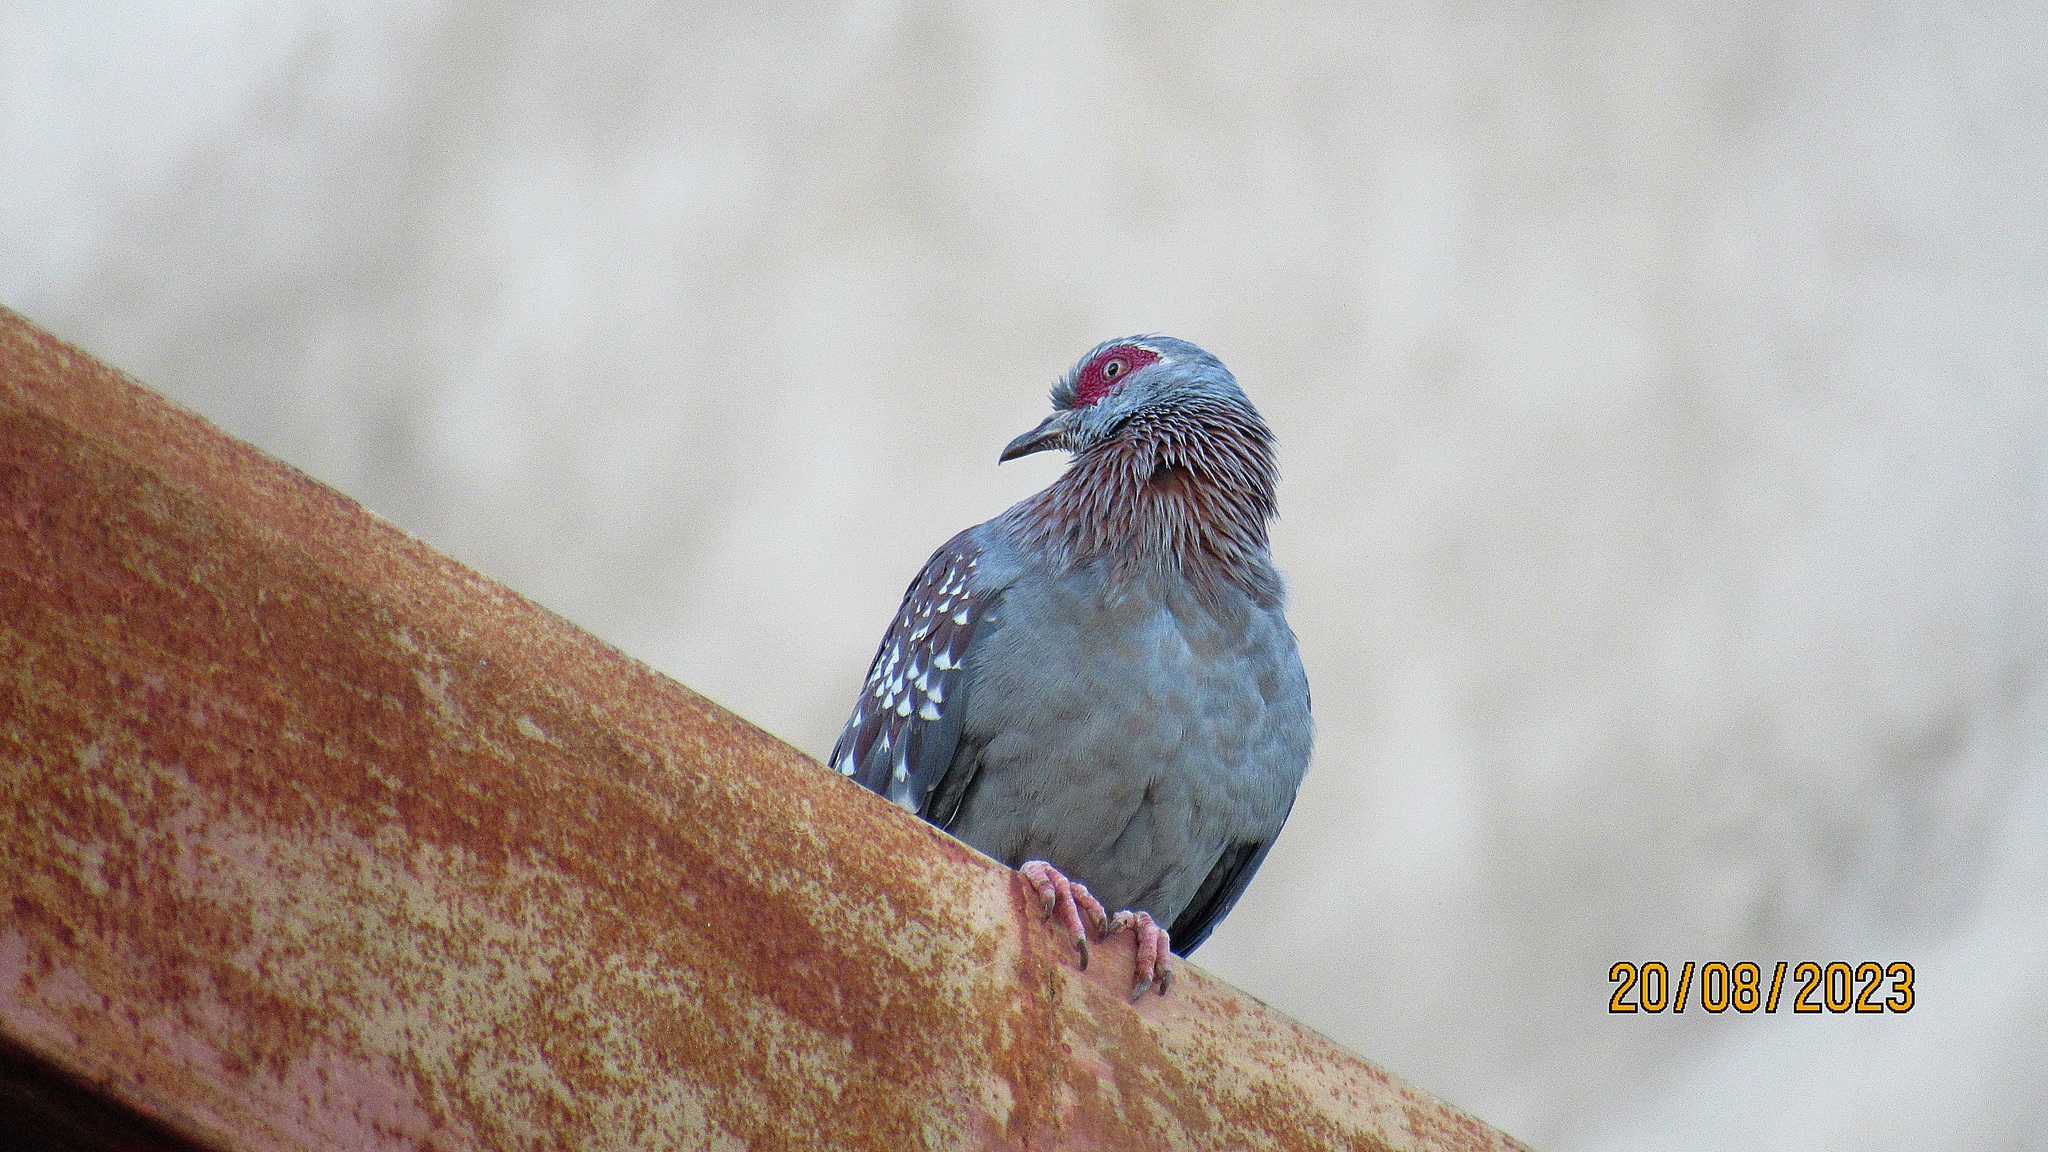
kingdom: Animalia
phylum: Chordata
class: Aves
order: Columbiformes
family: Columbidae
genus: Columba
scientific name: Columba guinea
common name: Speckled pigeon
